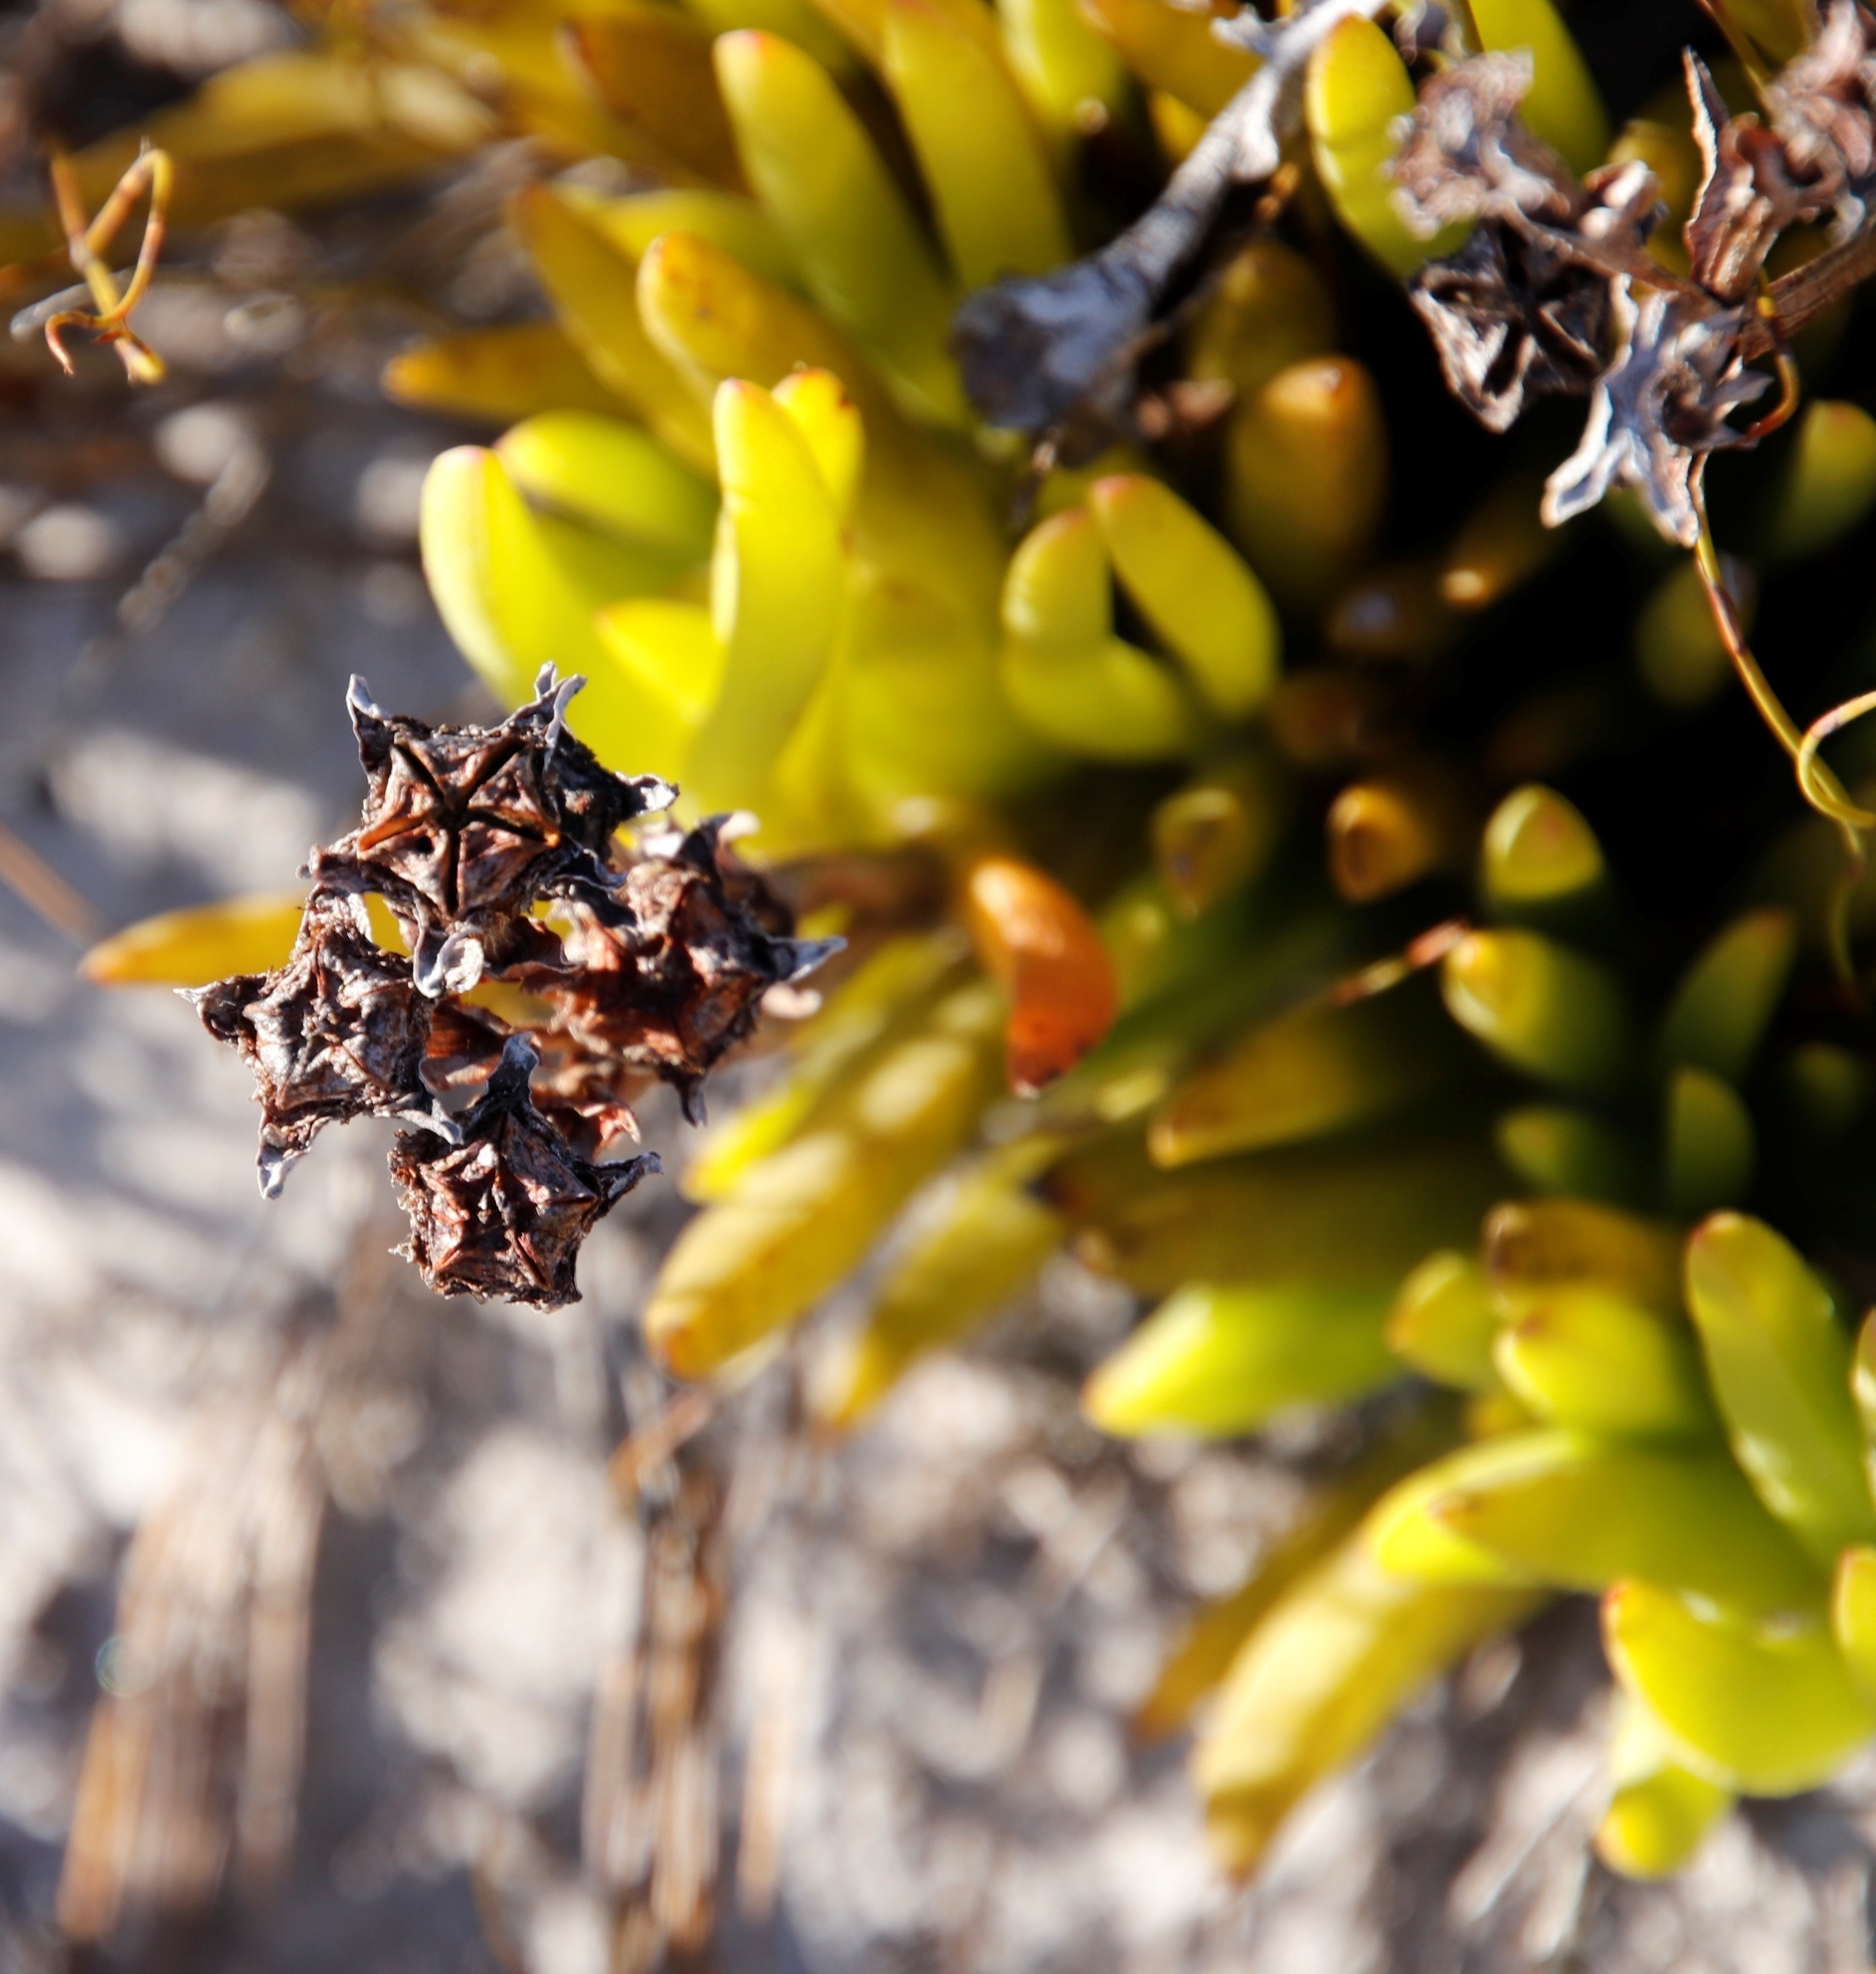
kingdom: Plantae
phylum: Tracheophyta
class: Magnoliopsida
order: Caryophyllales
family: Aizoaceae
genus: Ruschia
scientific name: Ruschia sarmentosa
